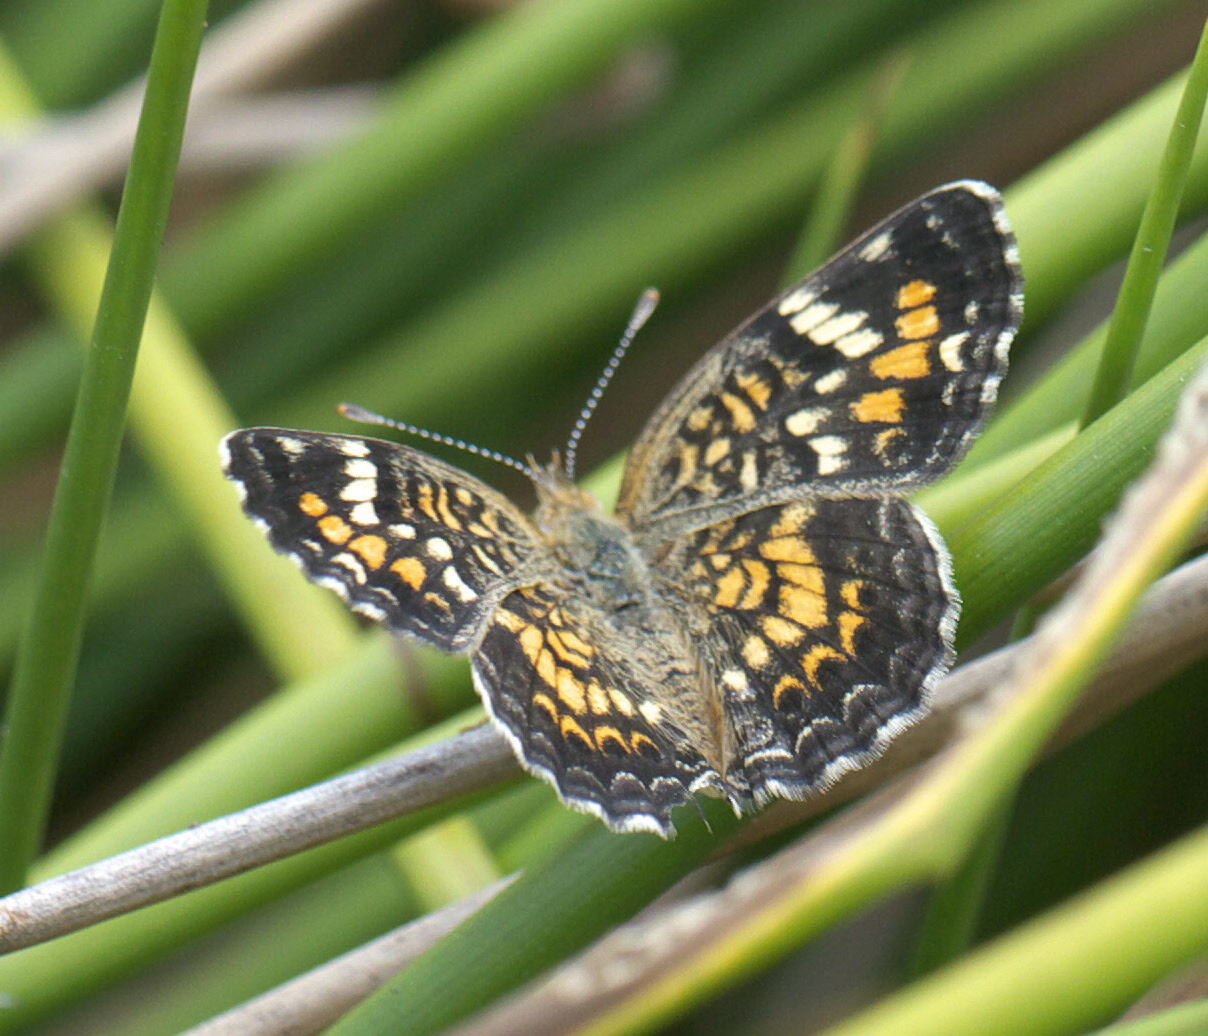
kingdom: Animalia
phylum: Arthropoda
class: Insecta
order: Lepidoptera
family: Nymphalidae
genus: Phyciodes
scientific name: Phyciodes phaon
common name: Phaon crescent
